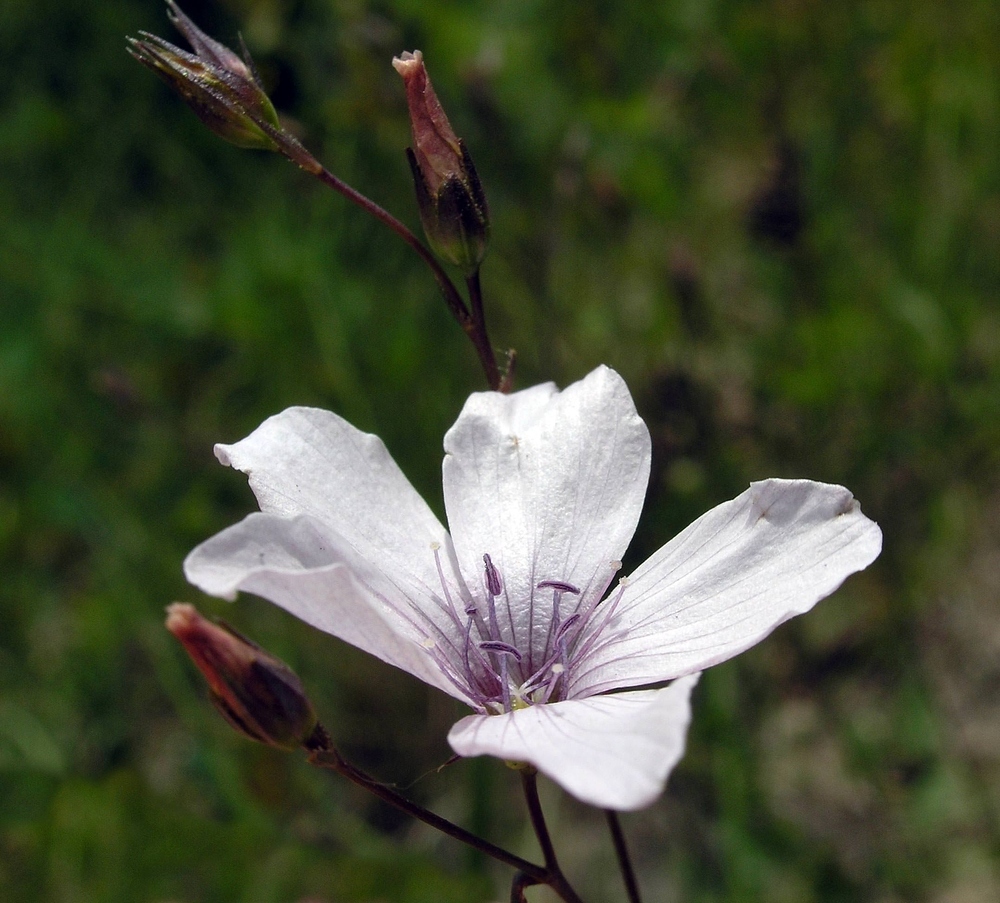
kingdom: Plantae
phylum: Tracheophyta
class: Magnoliopsida
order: Malpighiales
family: Linaceae
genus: Linum
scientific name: Linum tenuifolium
